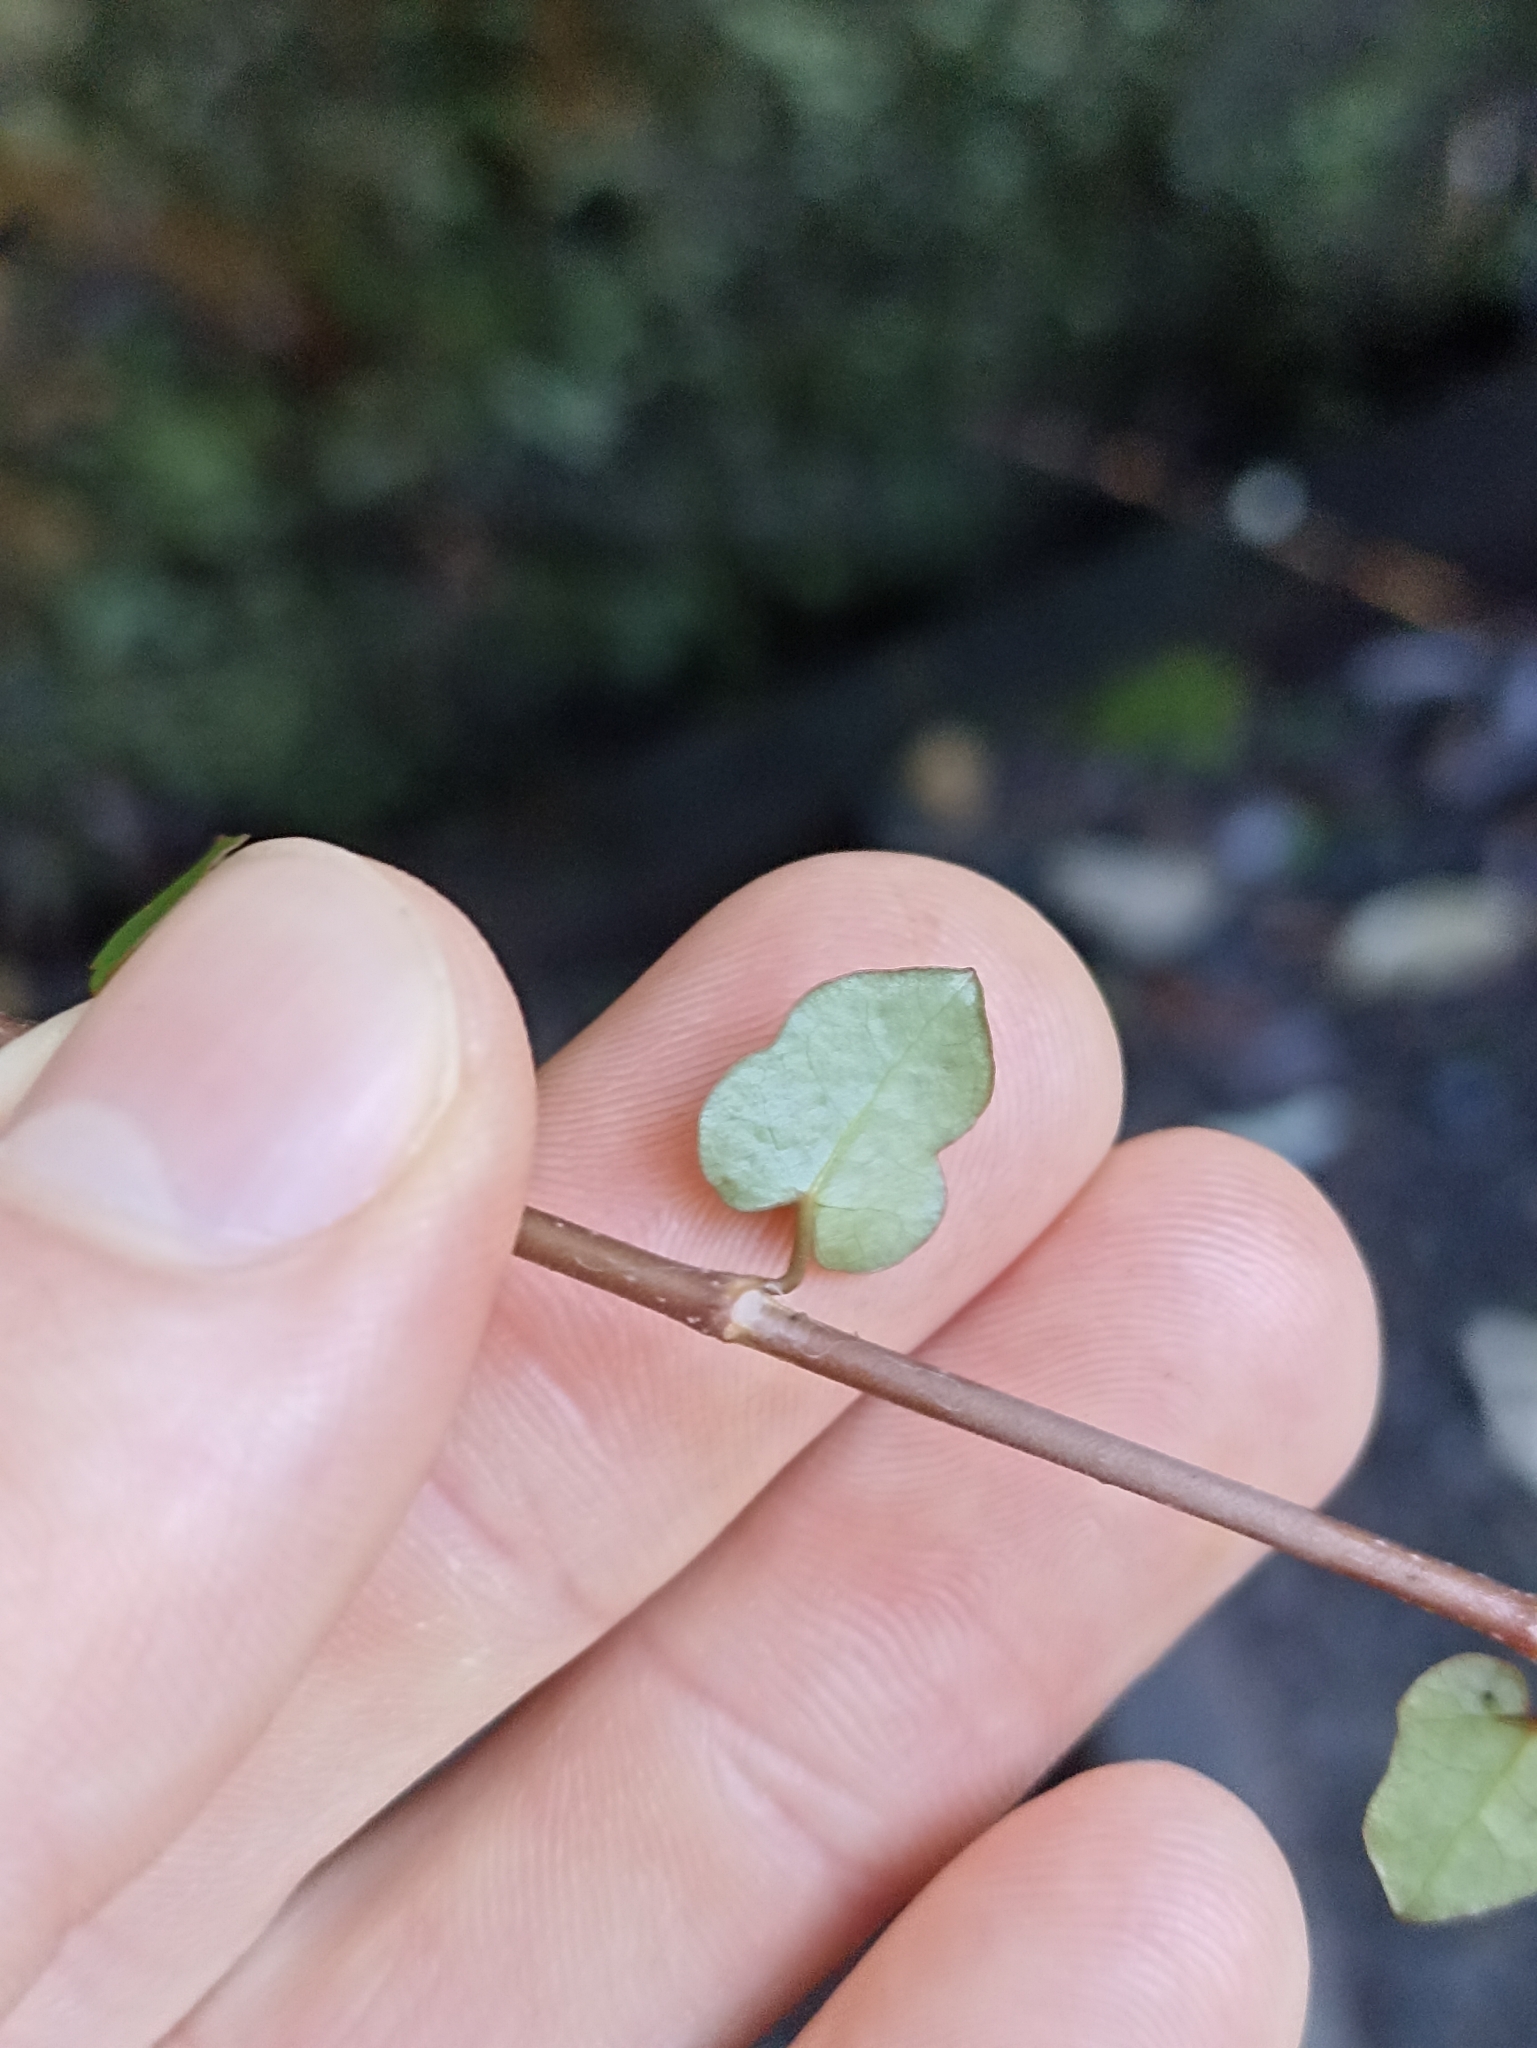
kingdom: Plantae
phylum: Tracheophyta
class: Magnoliopsida
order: Caryophyllales
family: Polygonaceae
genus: Muehlenbeckia
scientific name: Muehlenbeckia australis
